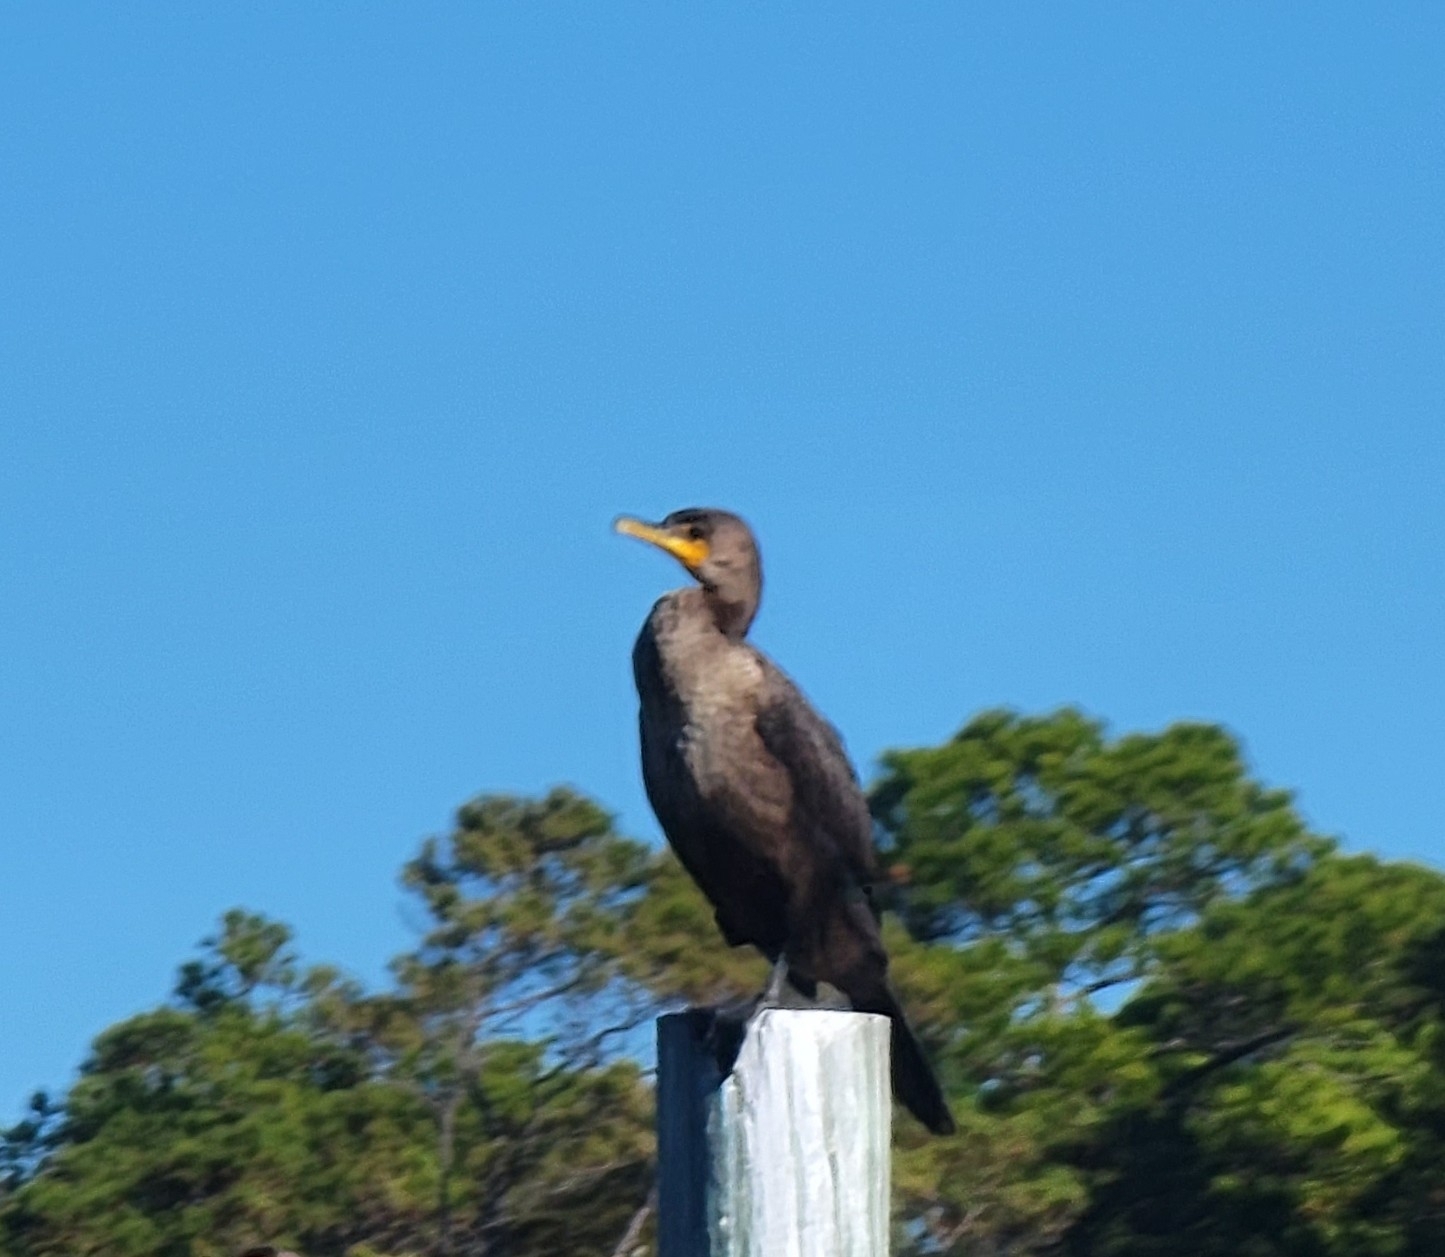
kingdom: Animalia
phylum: Chordata
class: Aves
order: Suliformes
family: Phalacrocoracidae
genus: Phalacrocorax
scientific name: Phalacrocorax auritus
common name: Double-crested cormorant
